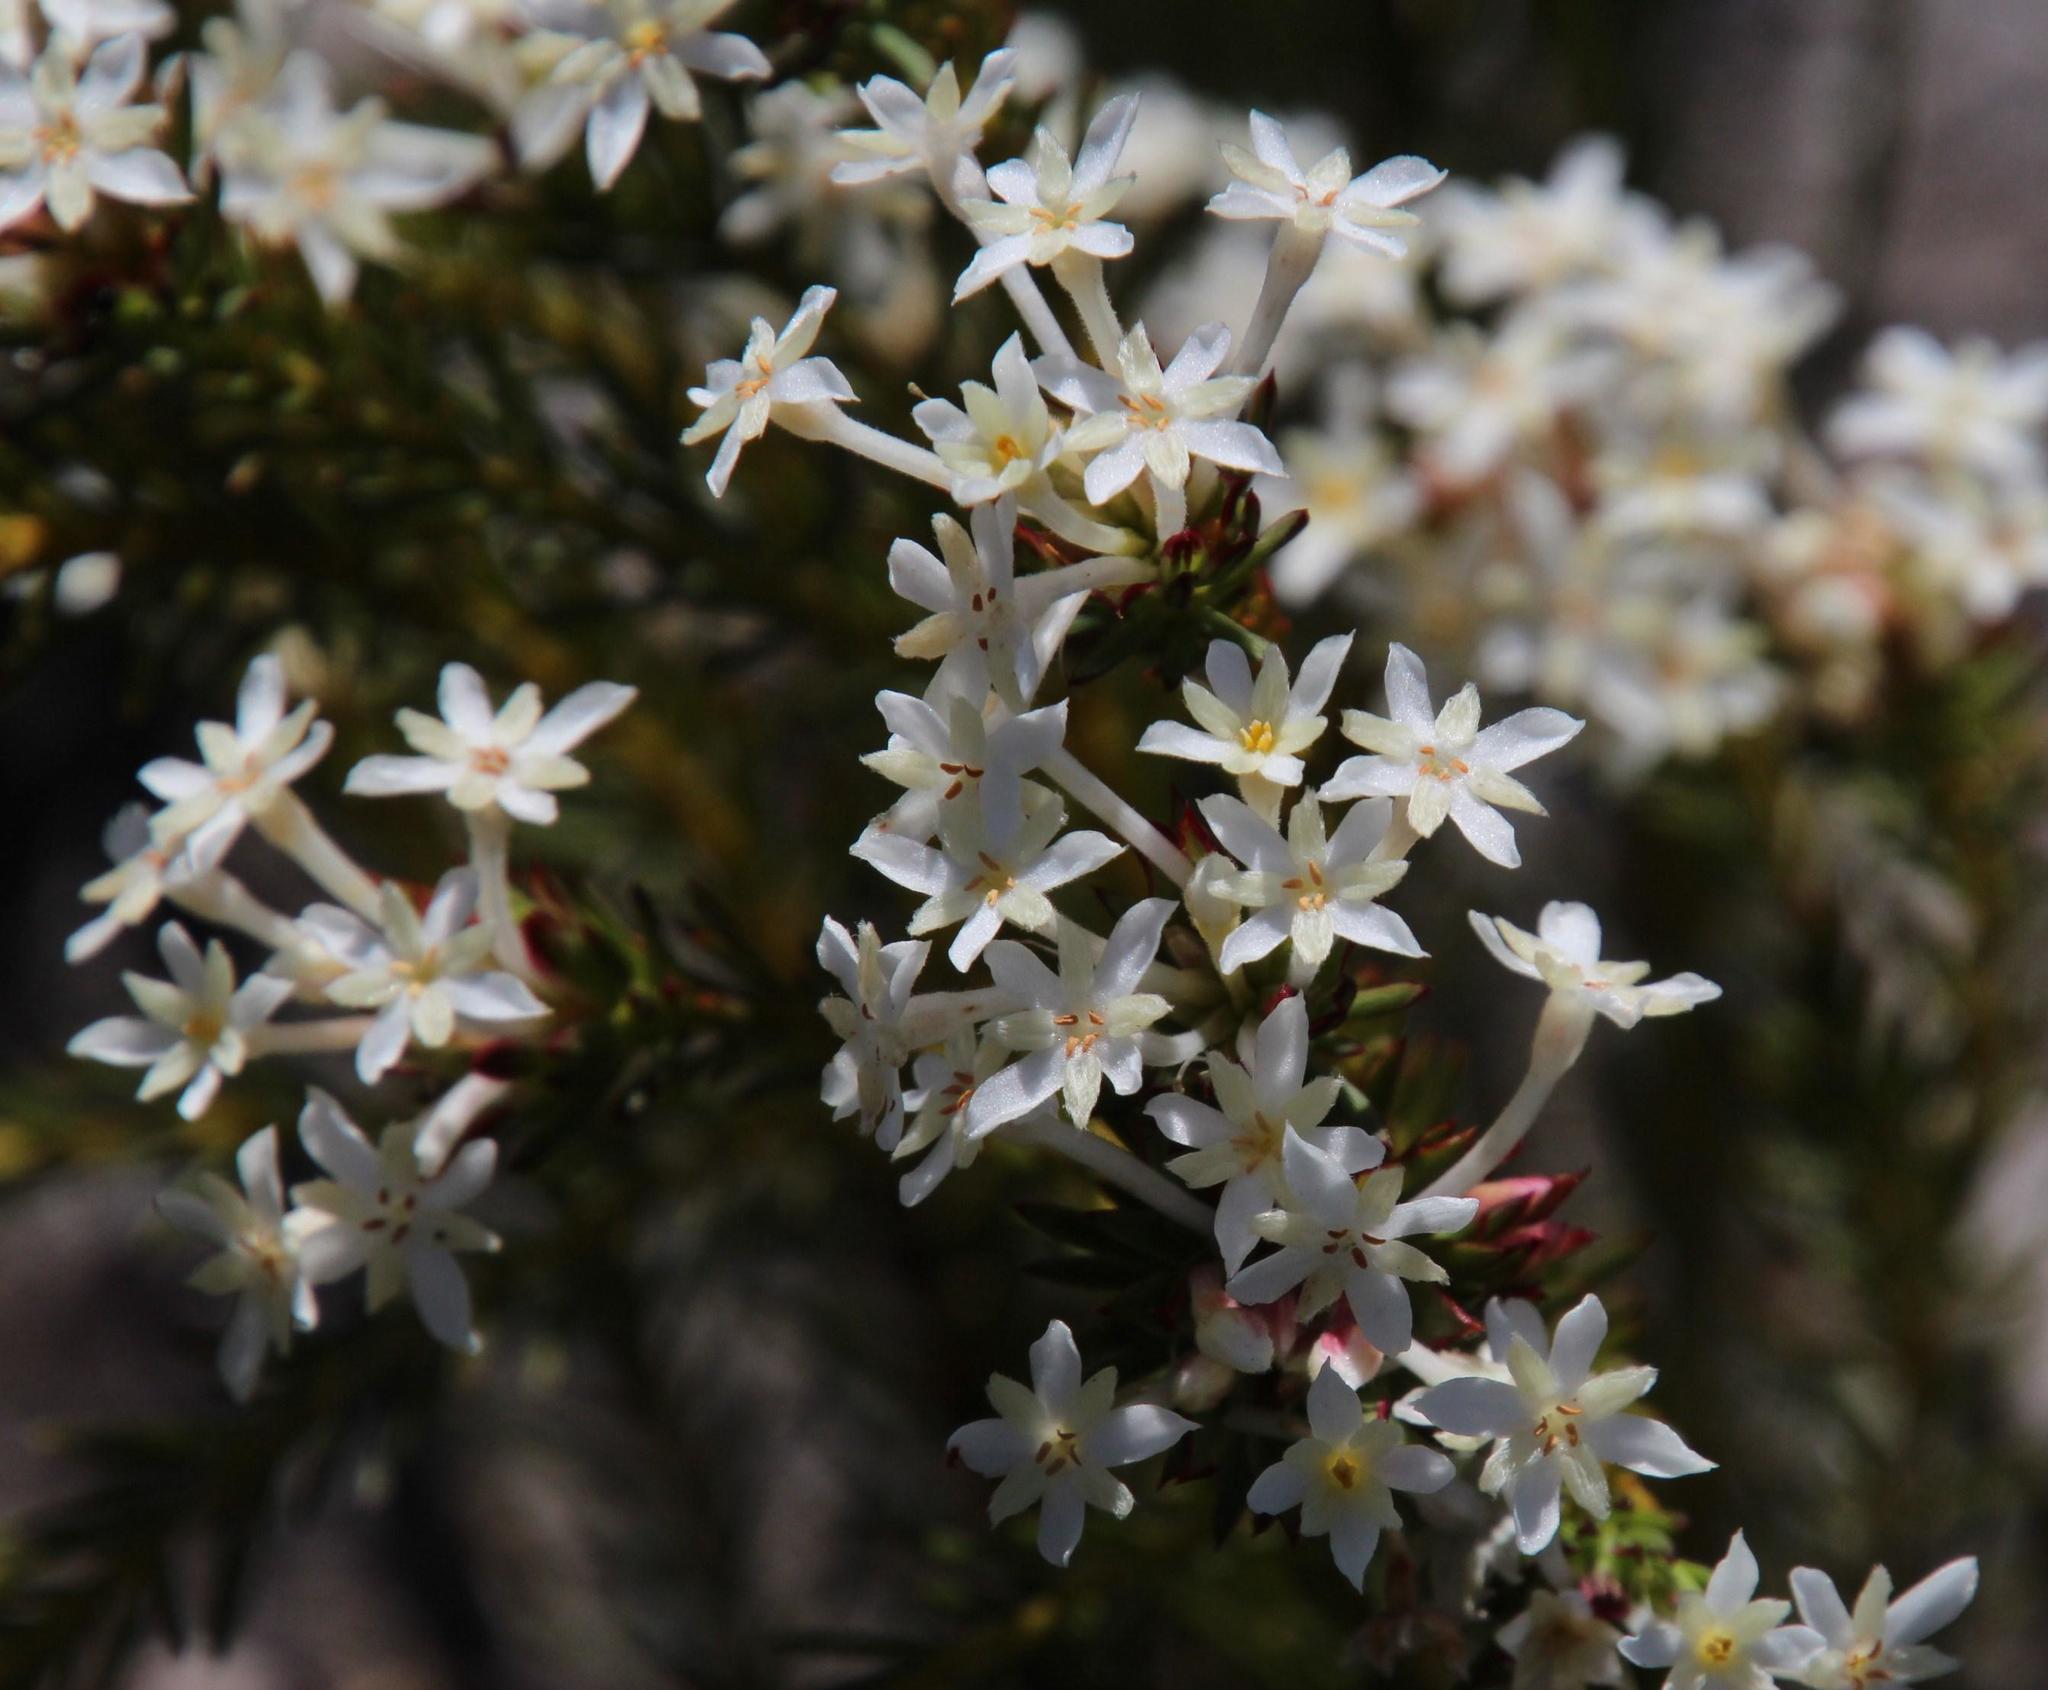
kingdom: Plantae
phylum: Tracheophyta
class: Magnoliopsida
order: Malvales
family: Thymelaeaceae
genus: Gnidia
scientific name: Gnidia pinifolia
